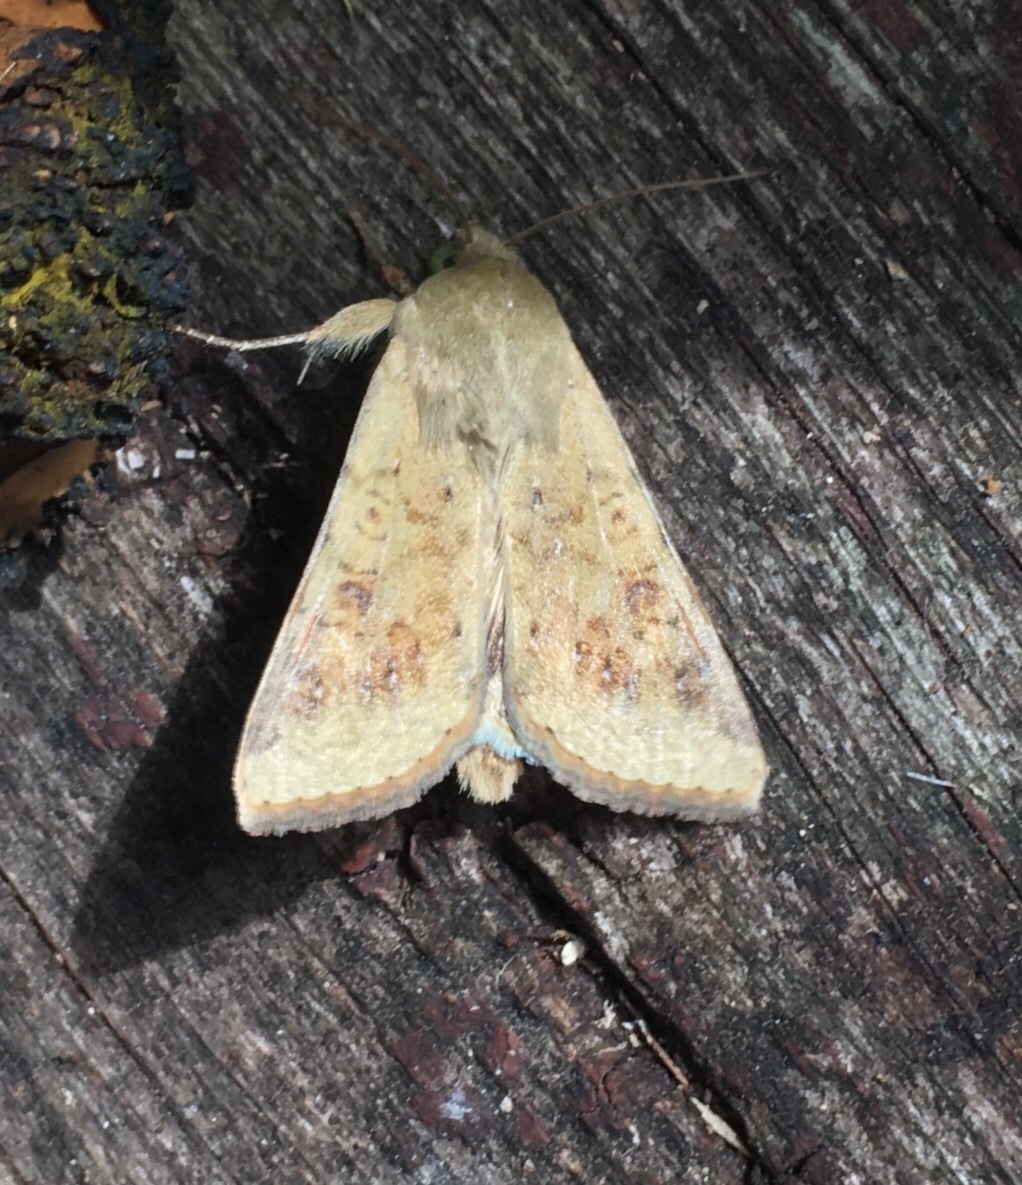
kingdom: Animalia
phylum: Arthropoda
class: Insecta
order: Lepidoptera
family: Noctuidae
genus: Helicoverpa
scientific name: Helicoverpa zea
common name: Bollworm
